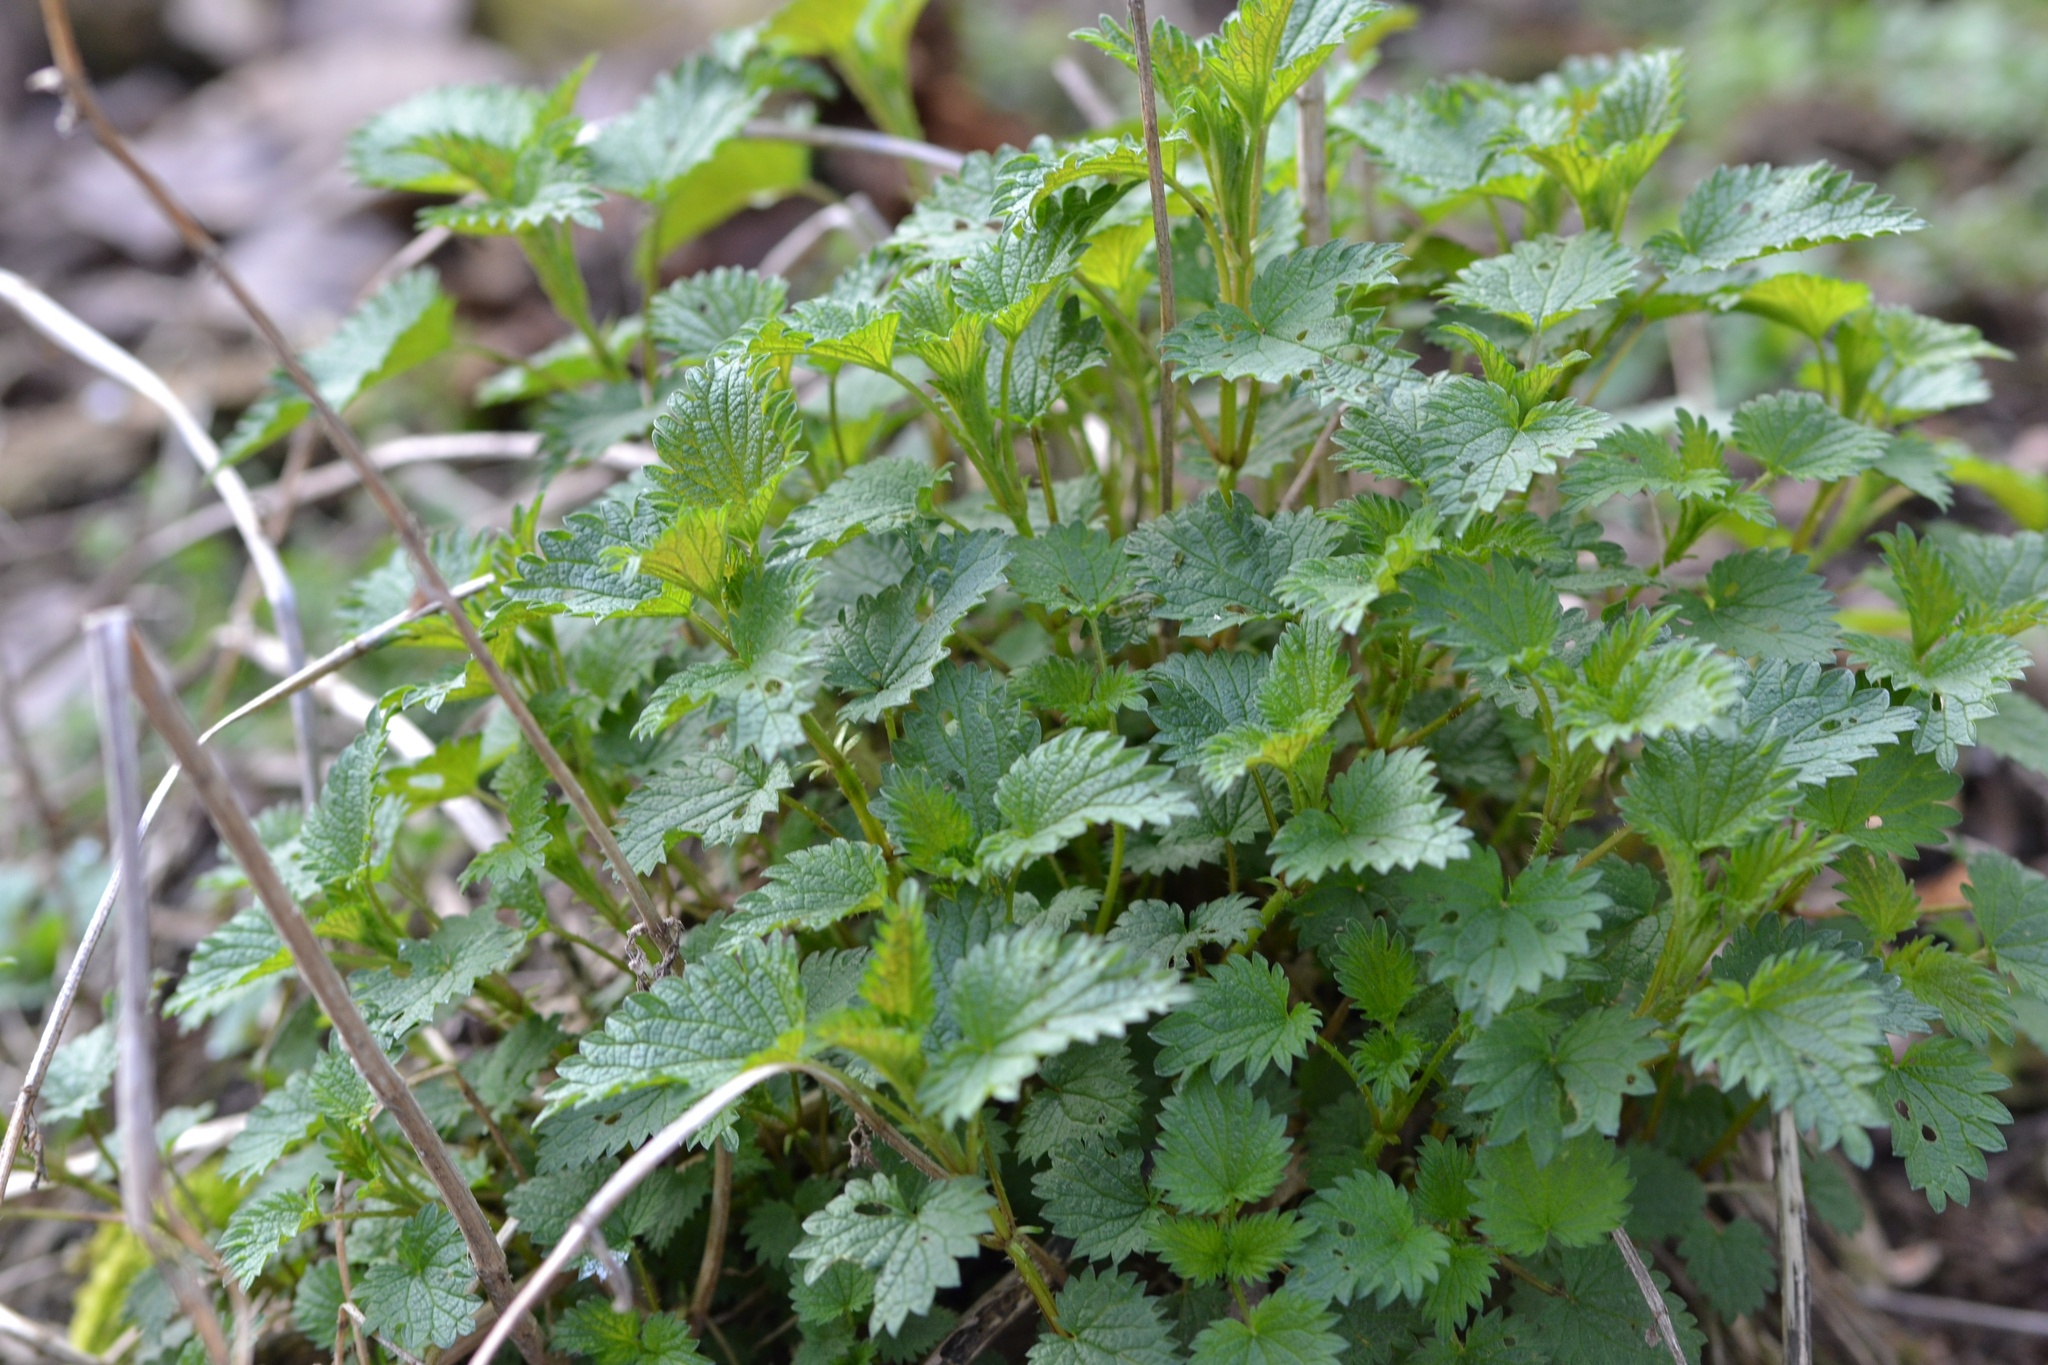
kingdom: Plantae
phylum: Tracheophyta
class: Magnoliopsida
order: Rosales
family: Urticaceae
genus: Urtica
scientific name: Urtica dioica
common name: Common nettle
